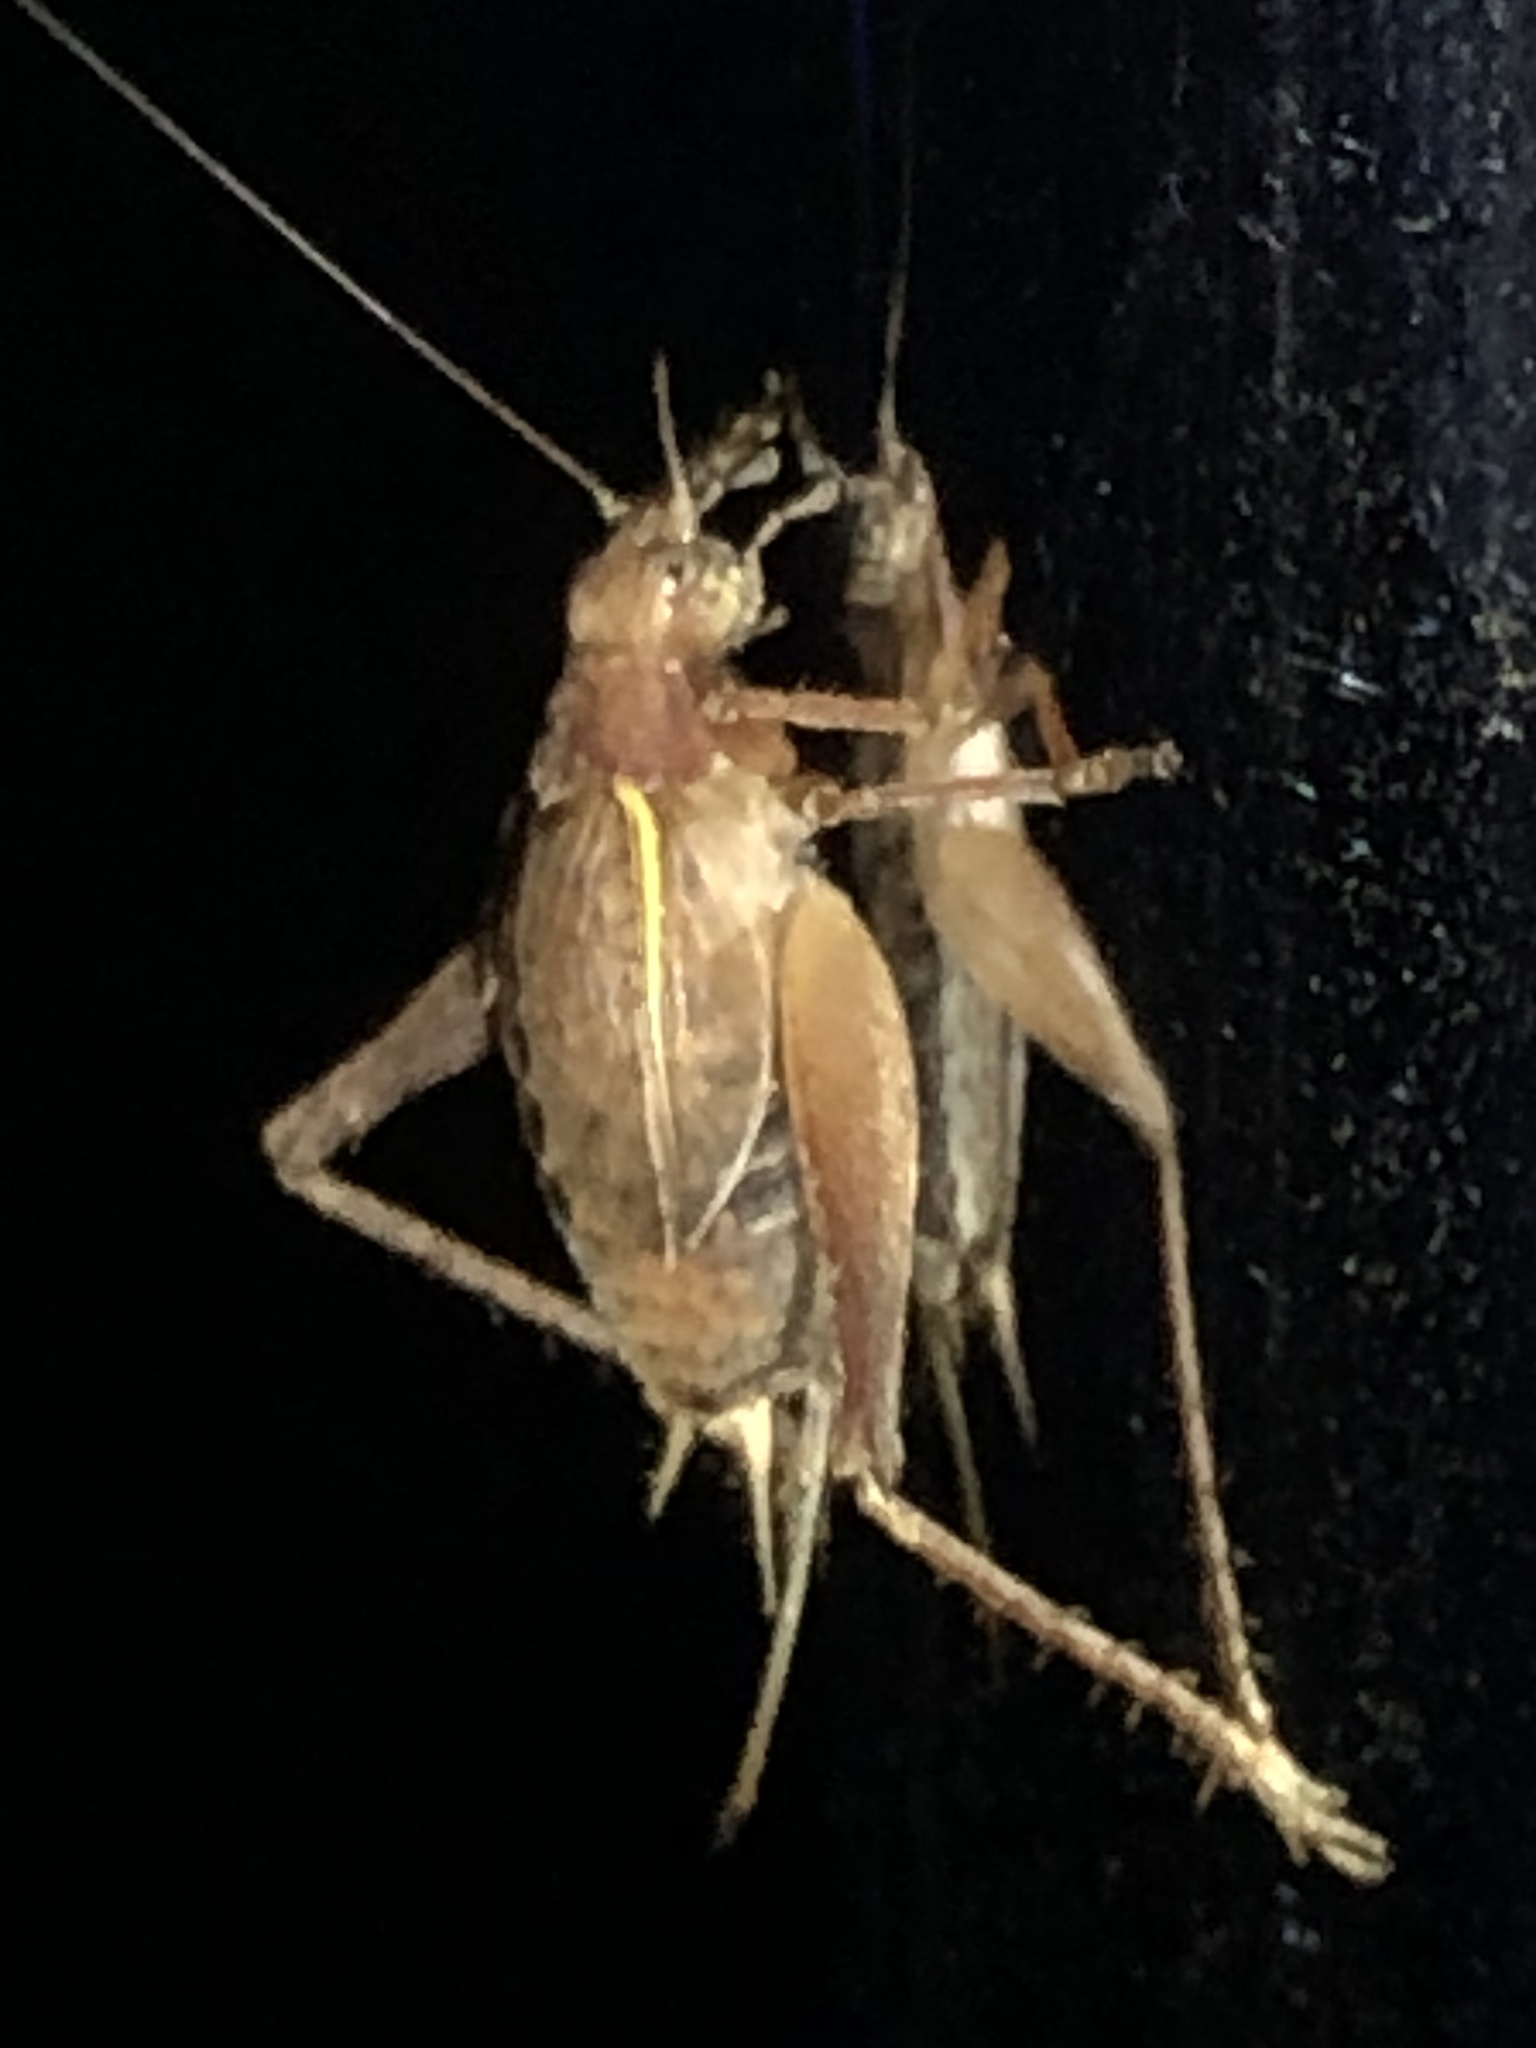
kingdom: Animalia
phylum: Arthropoda
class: Insecta
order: Orthoptera
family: Gryllidae
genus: Hapithus
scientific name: Hapithus agitator
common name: Restless bush cricket
